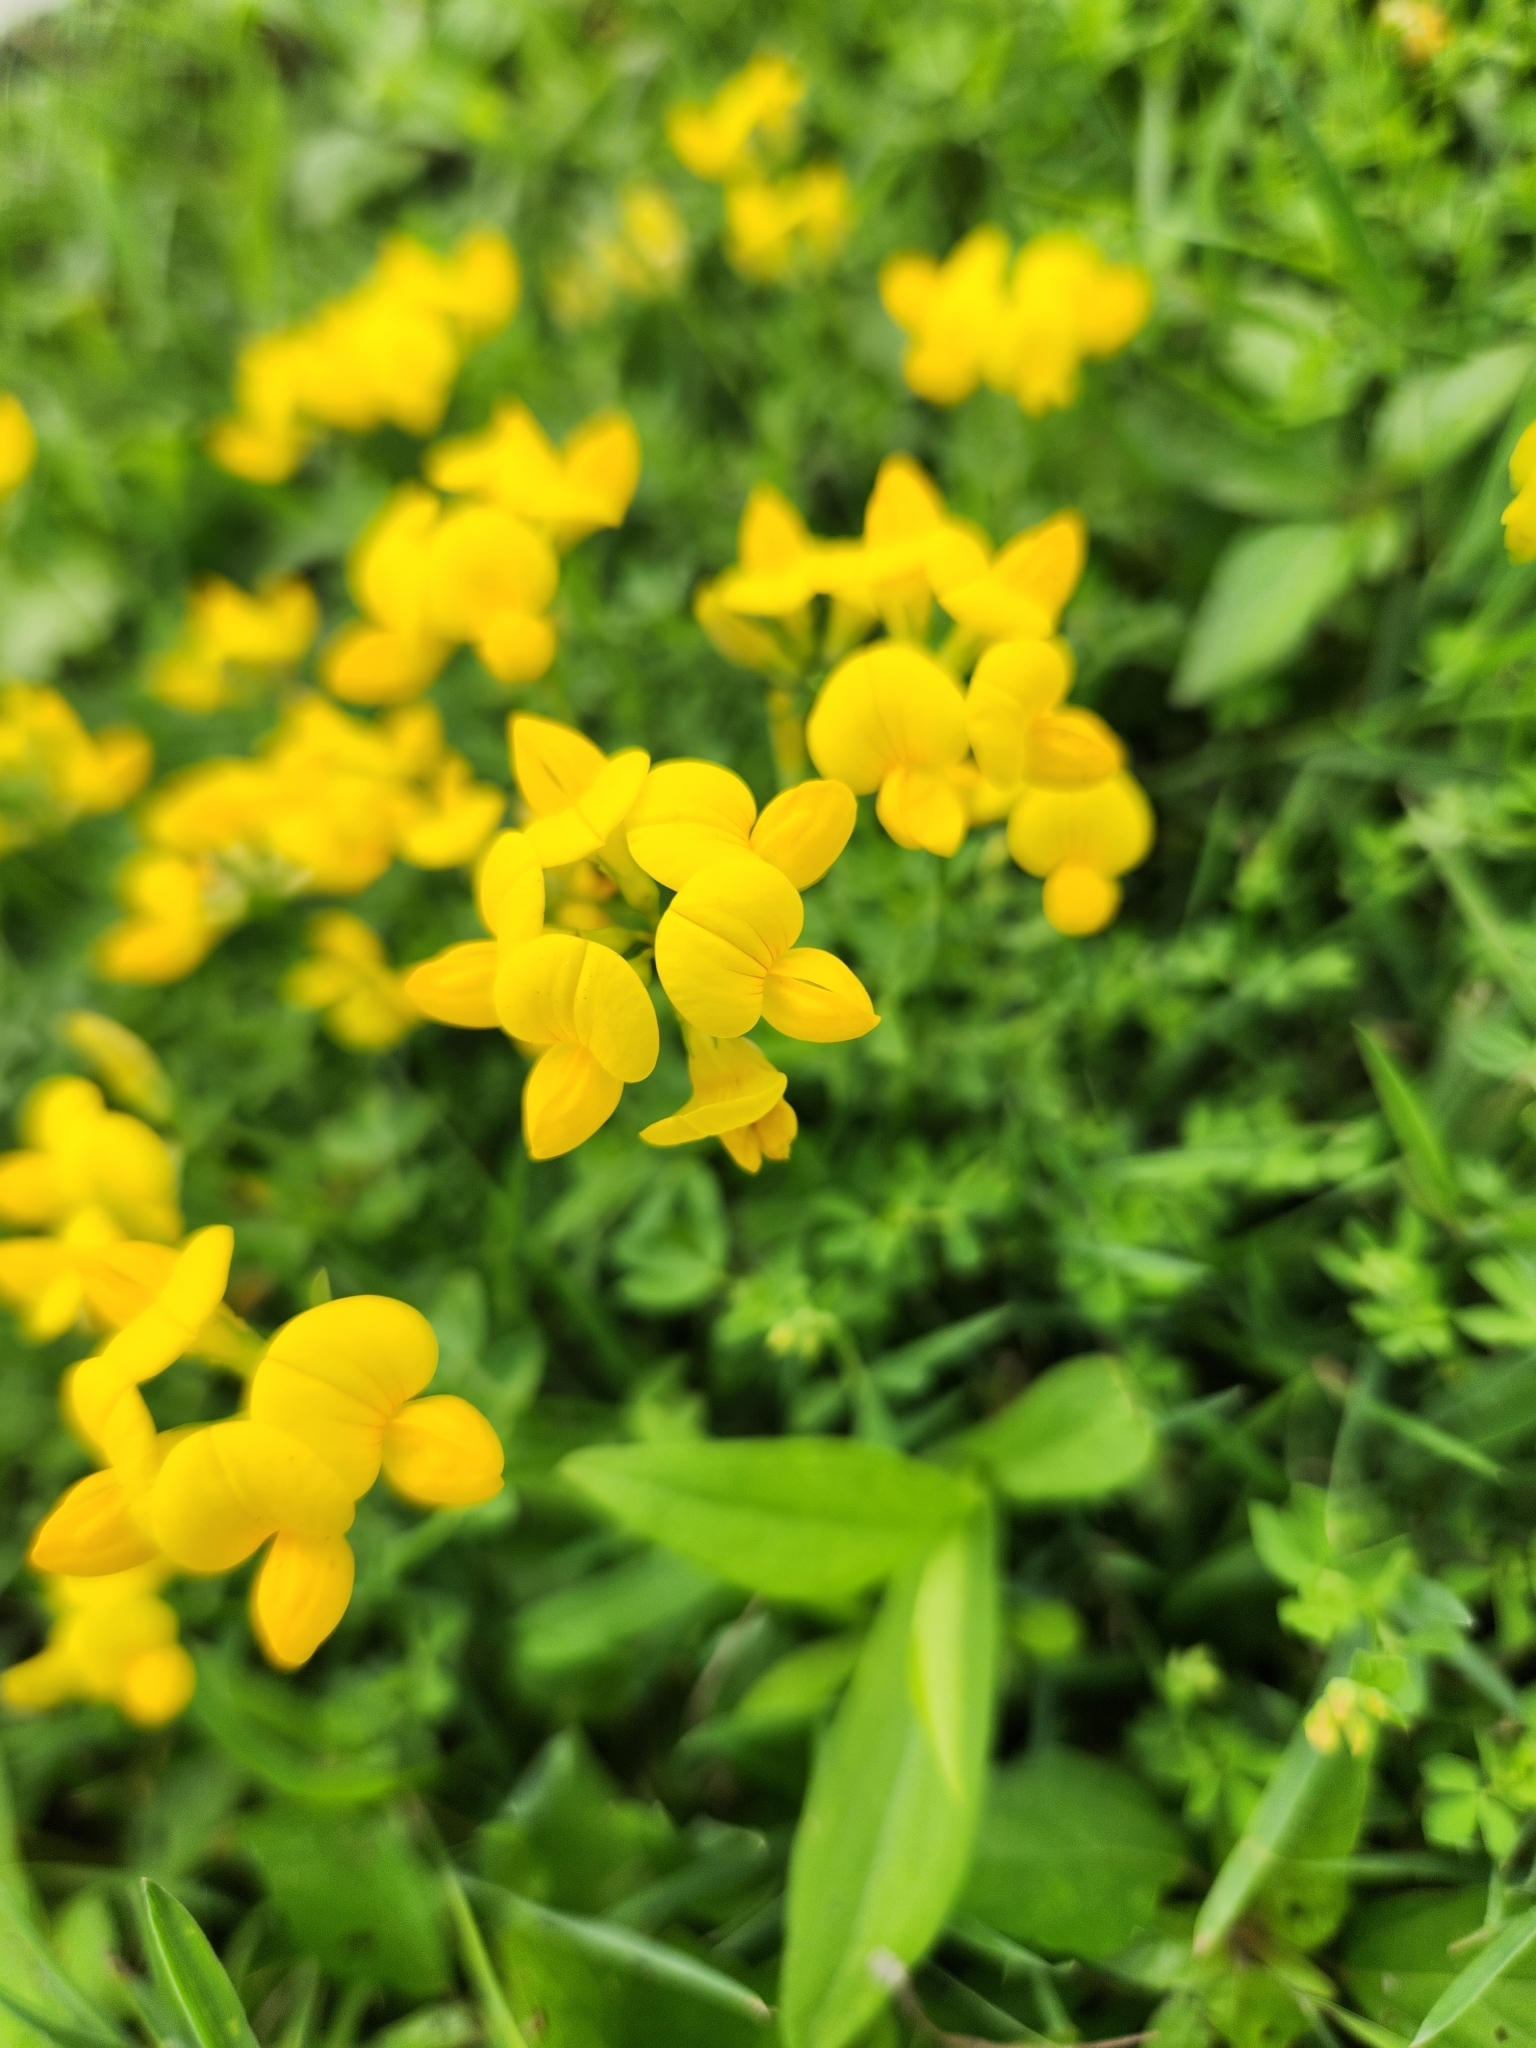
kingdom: Plantae
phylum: Tracheophyta
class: Magnoliopsida
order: Fabales
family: Fabaceae
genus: Lotus
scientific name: Lotus corniculatus
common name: Common bird's-foot-trefoil
